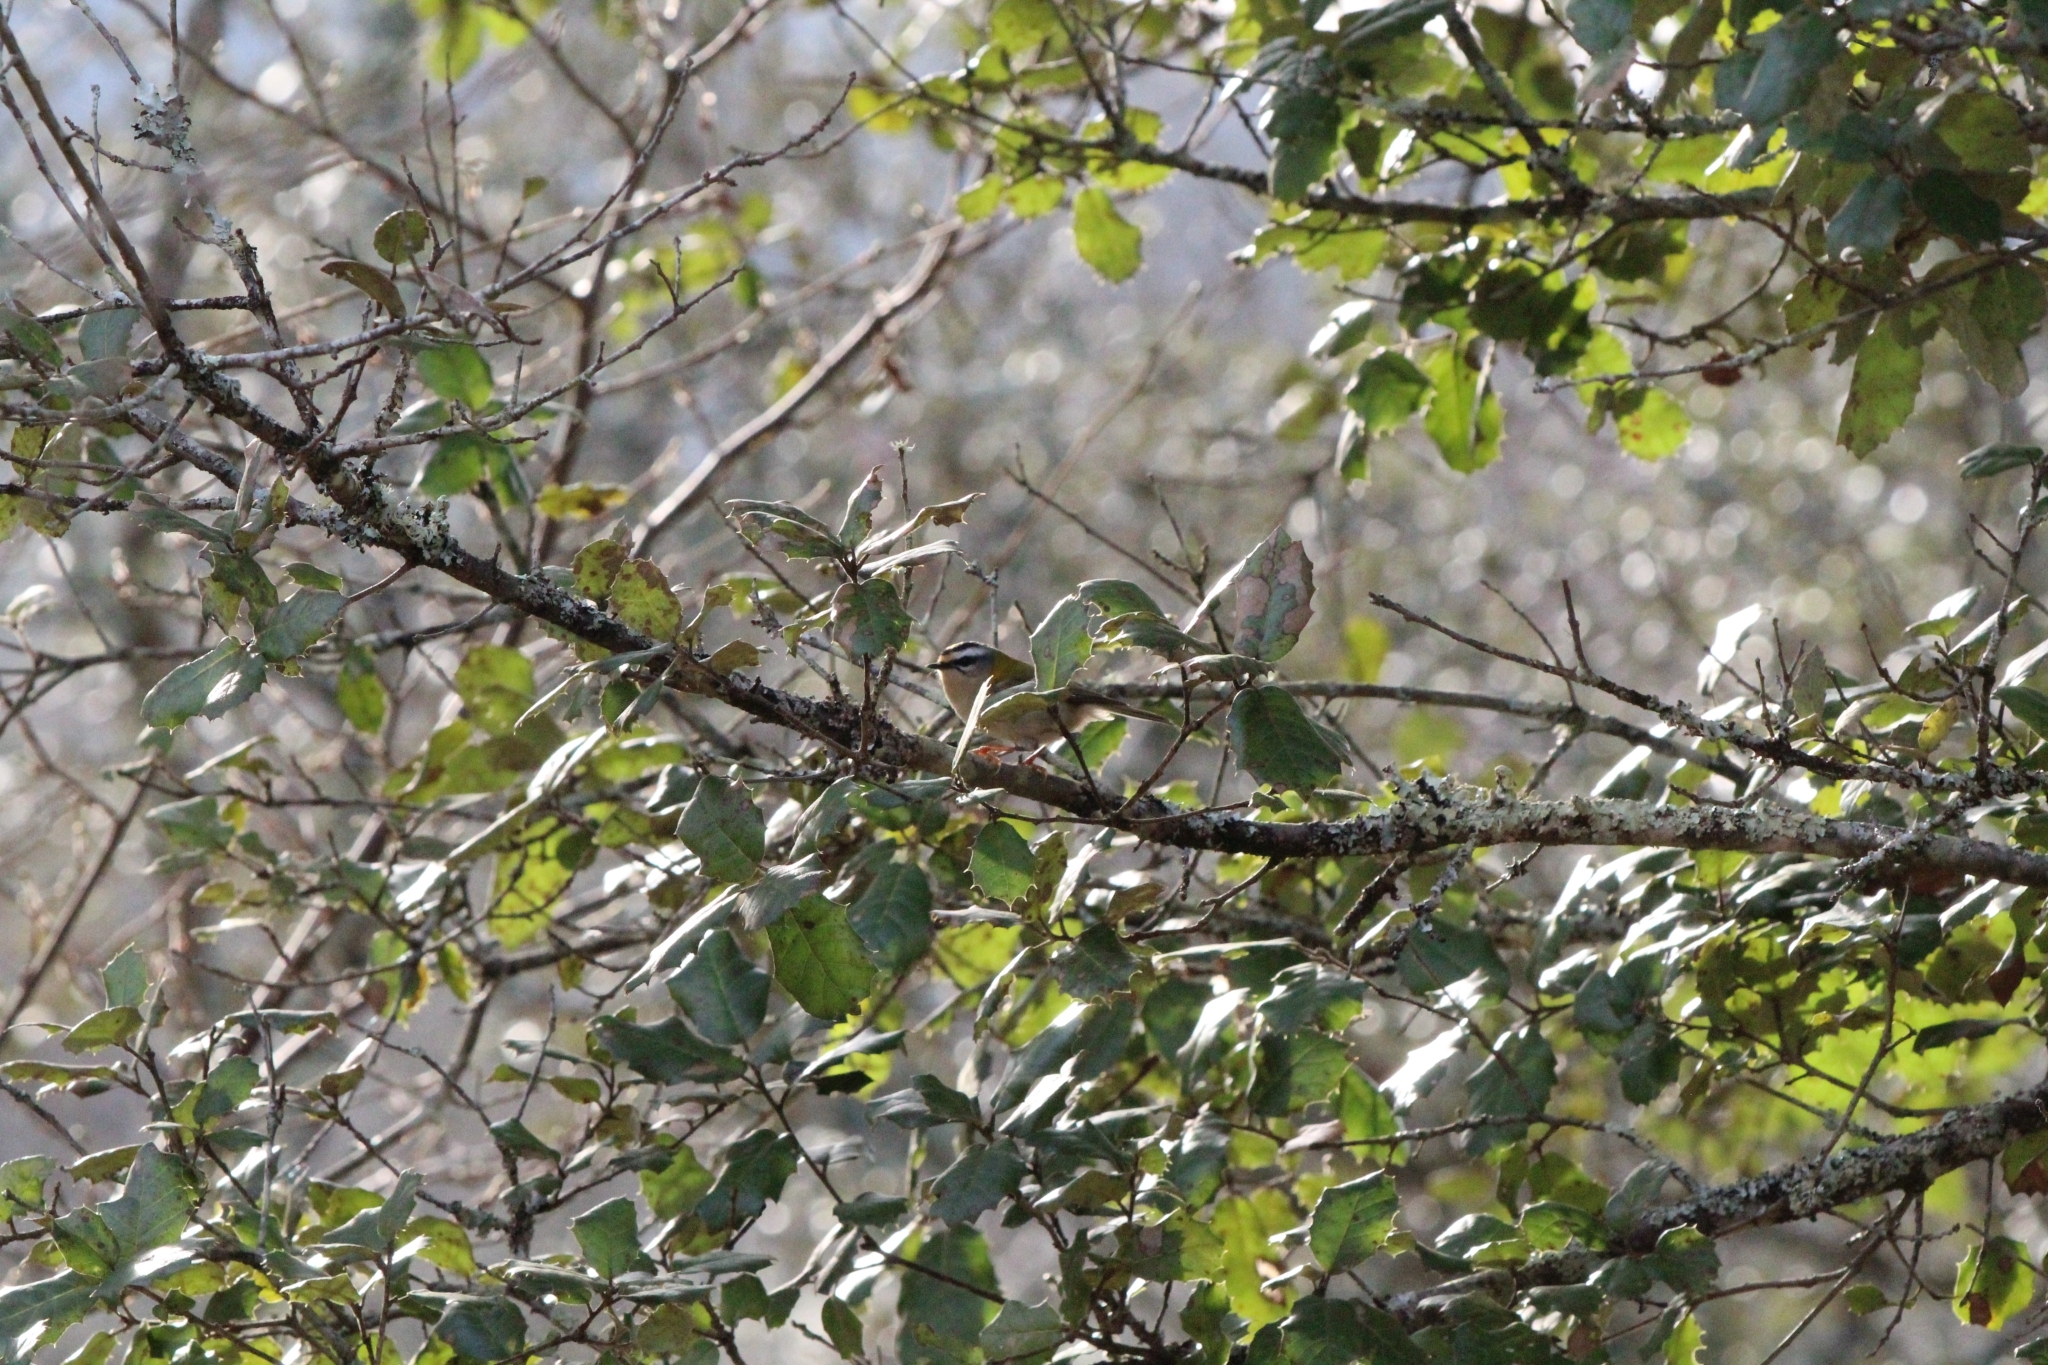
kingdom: Animalia
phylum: Chordata
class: Aves
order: Passeriformes
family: Regulidae
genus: Regulus
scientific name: Regulus ignicapilla
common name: Firecrest
